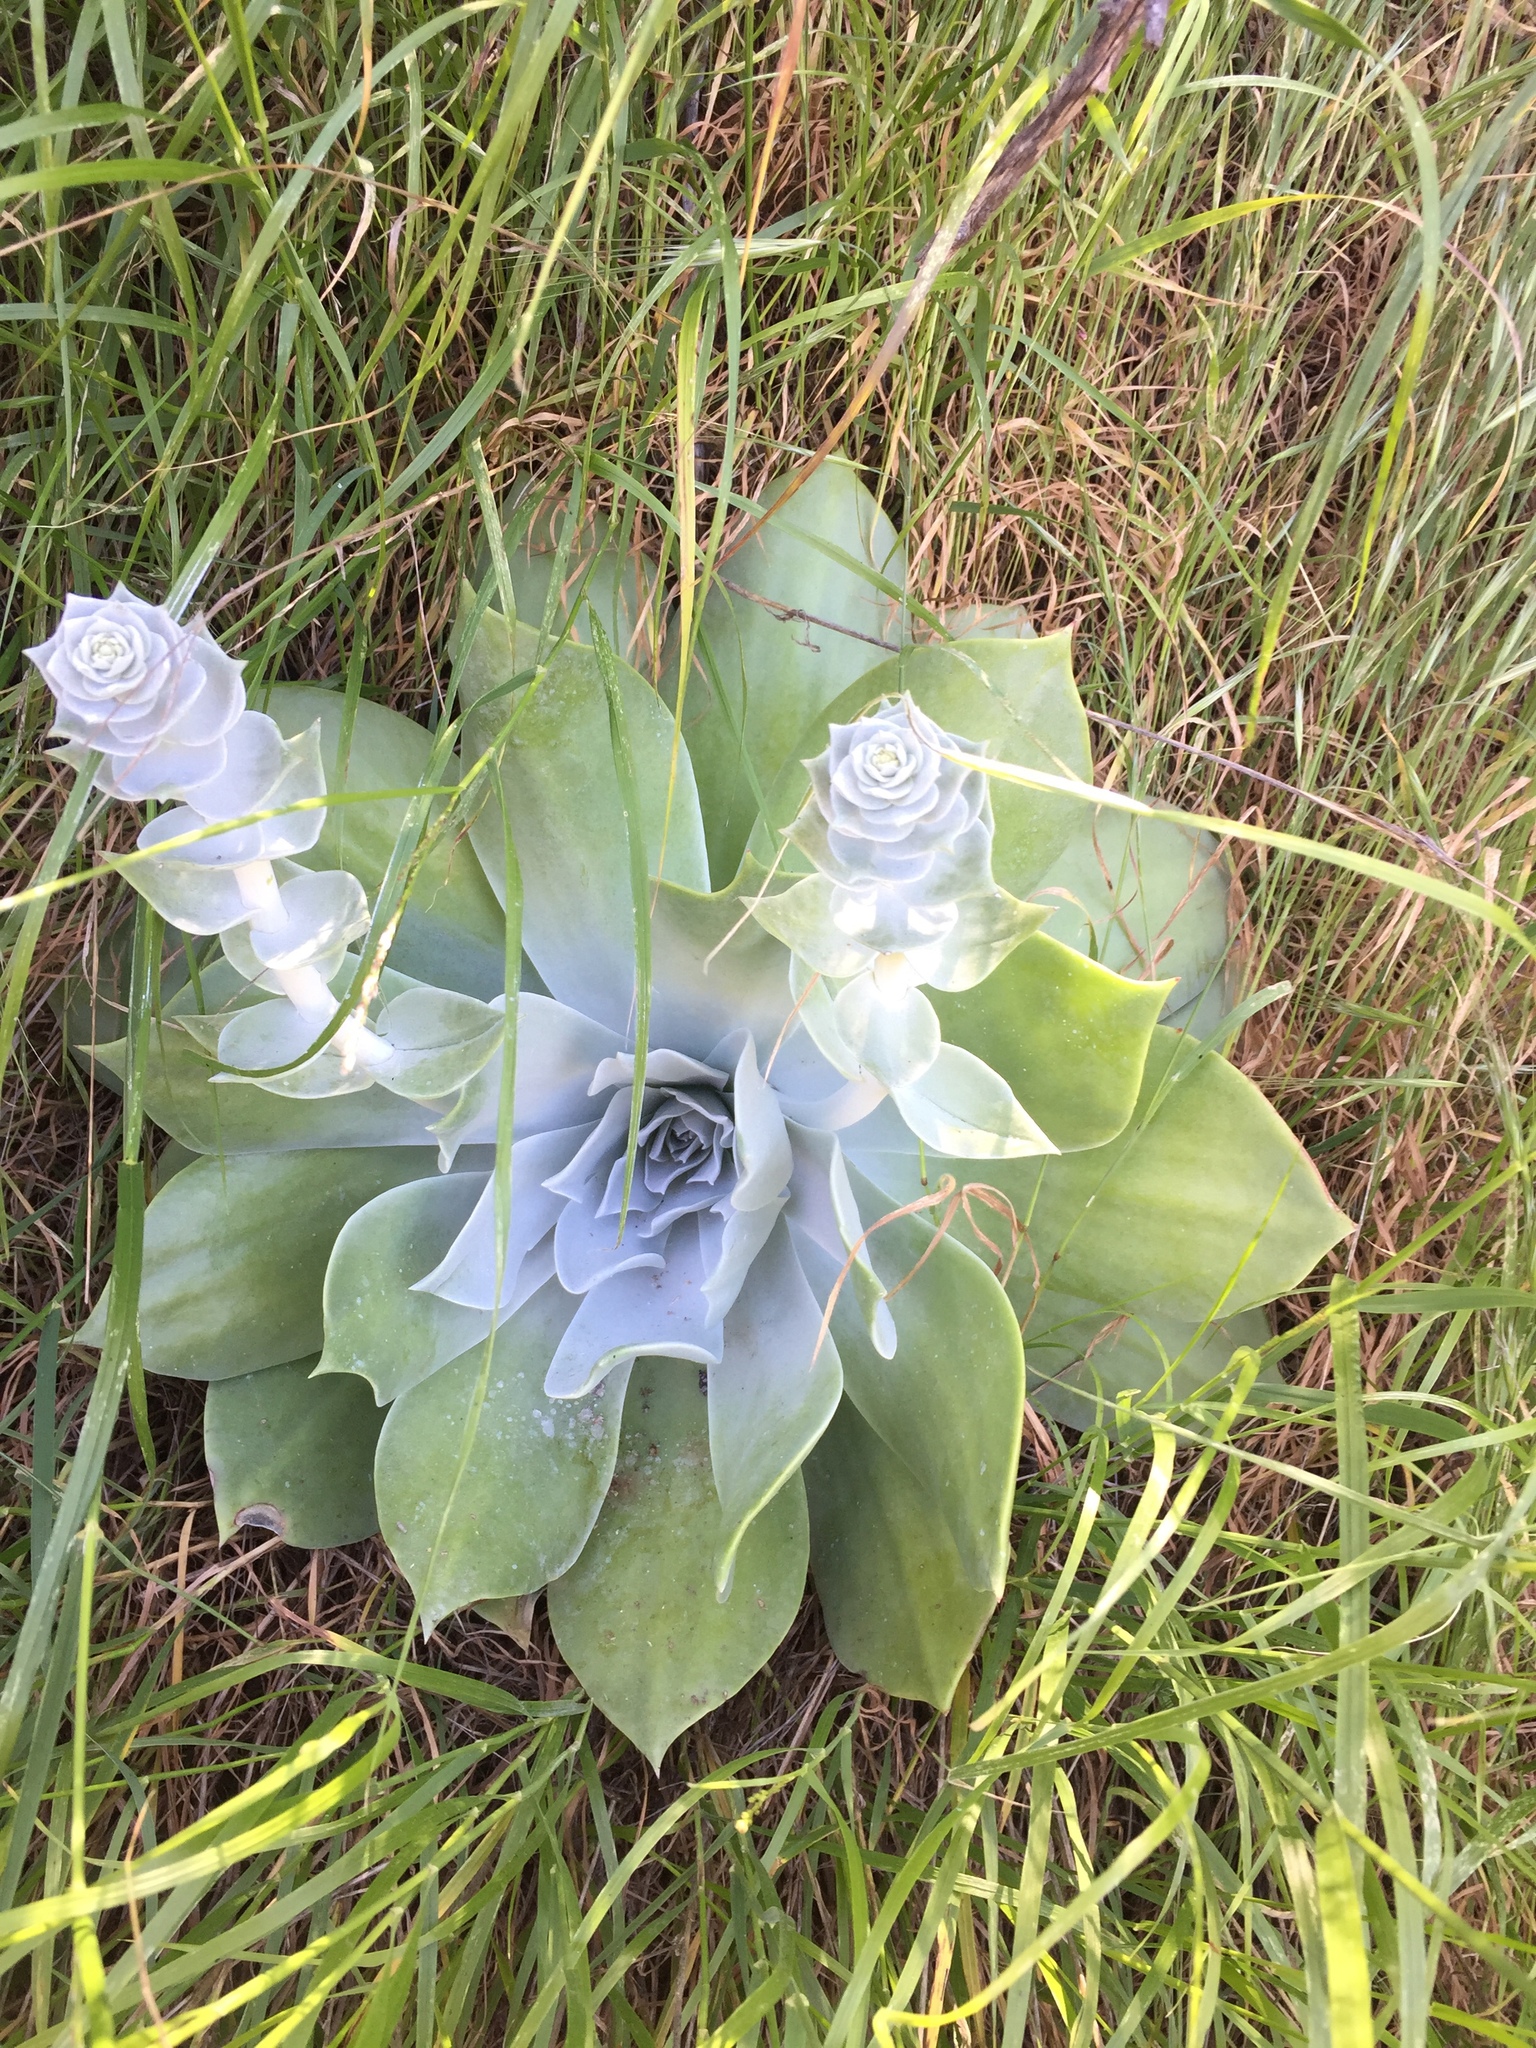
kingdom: Plantae
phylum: Tracheophyta
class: Magnoliopsida
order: Saxifragales
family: Crassulaceae
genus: Dudleya
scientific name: Dudleya pulverulenta
